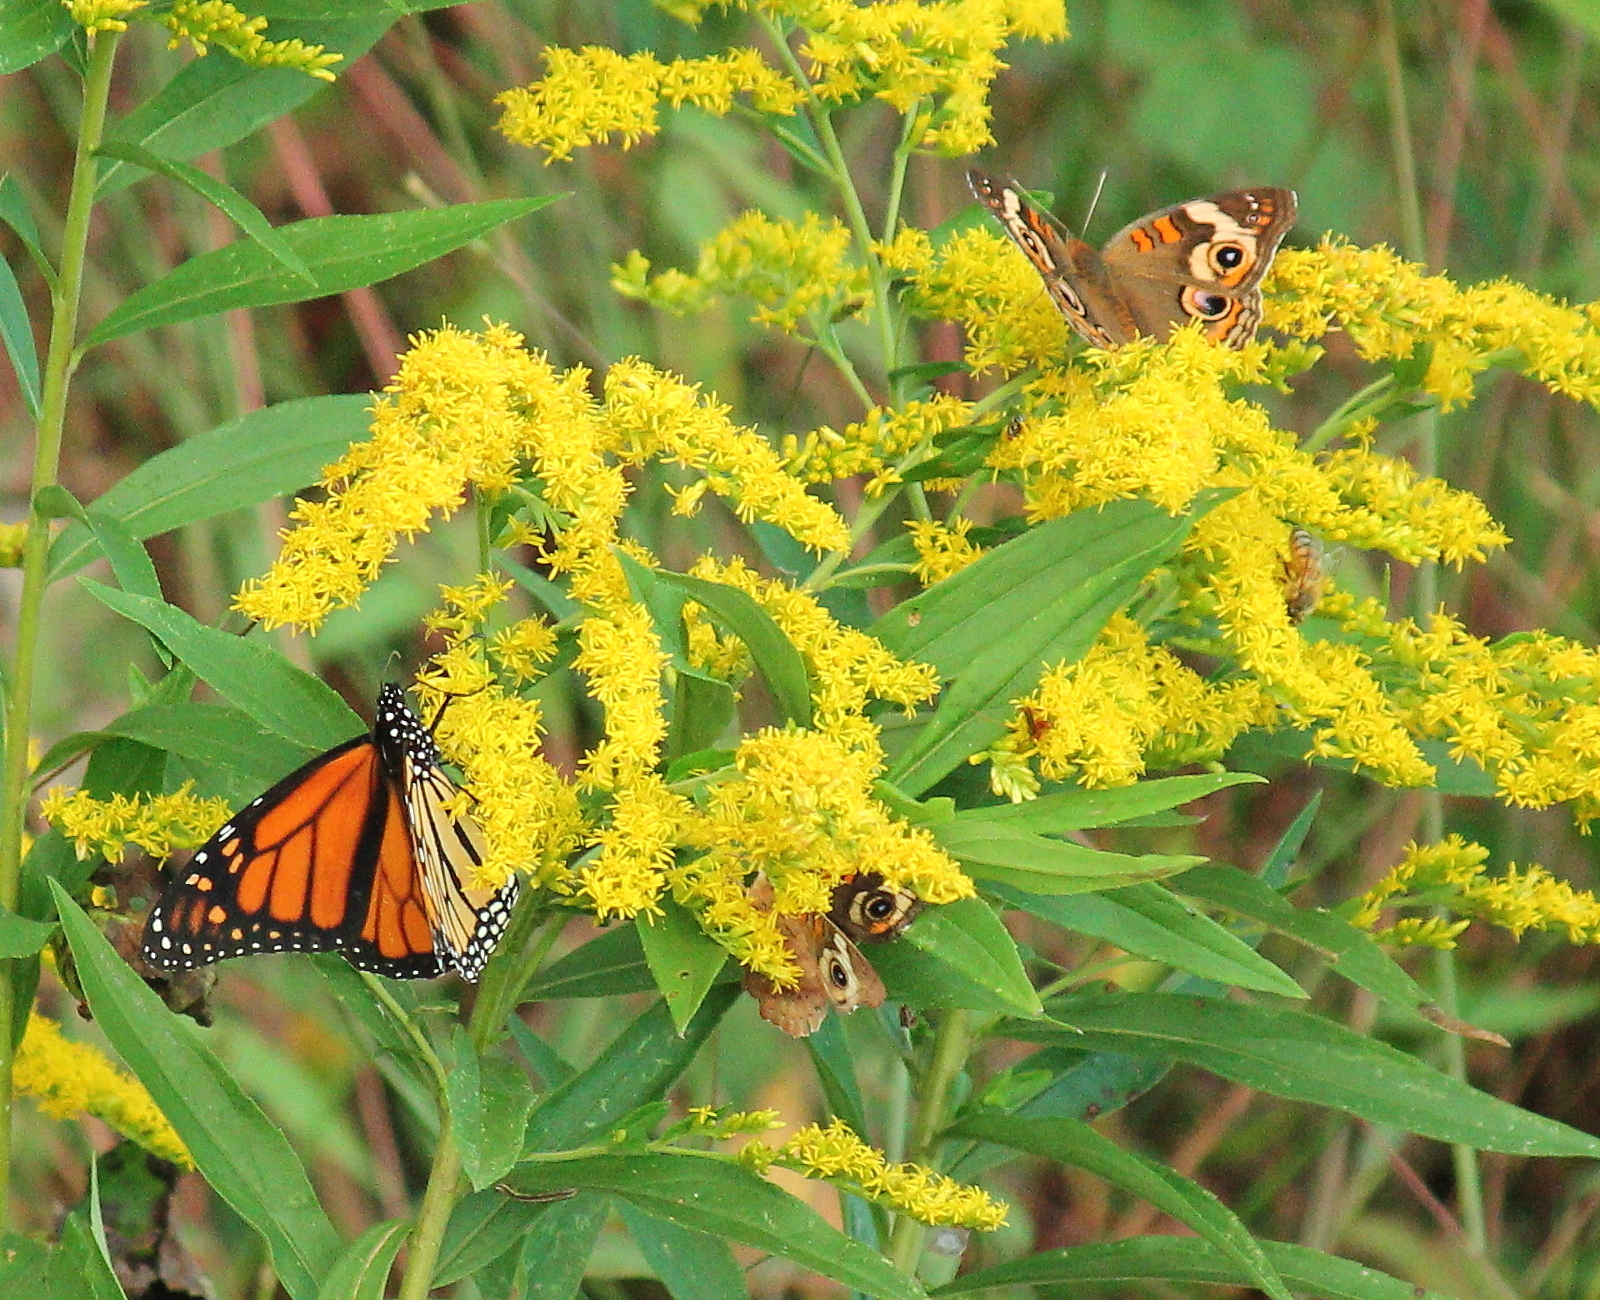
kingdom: Animalia
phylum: Arthropoda
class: Insecta
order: Lepidoptera
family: Nymphalidae
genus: Danaus
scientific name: Danaus plexippus
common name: Monarch
